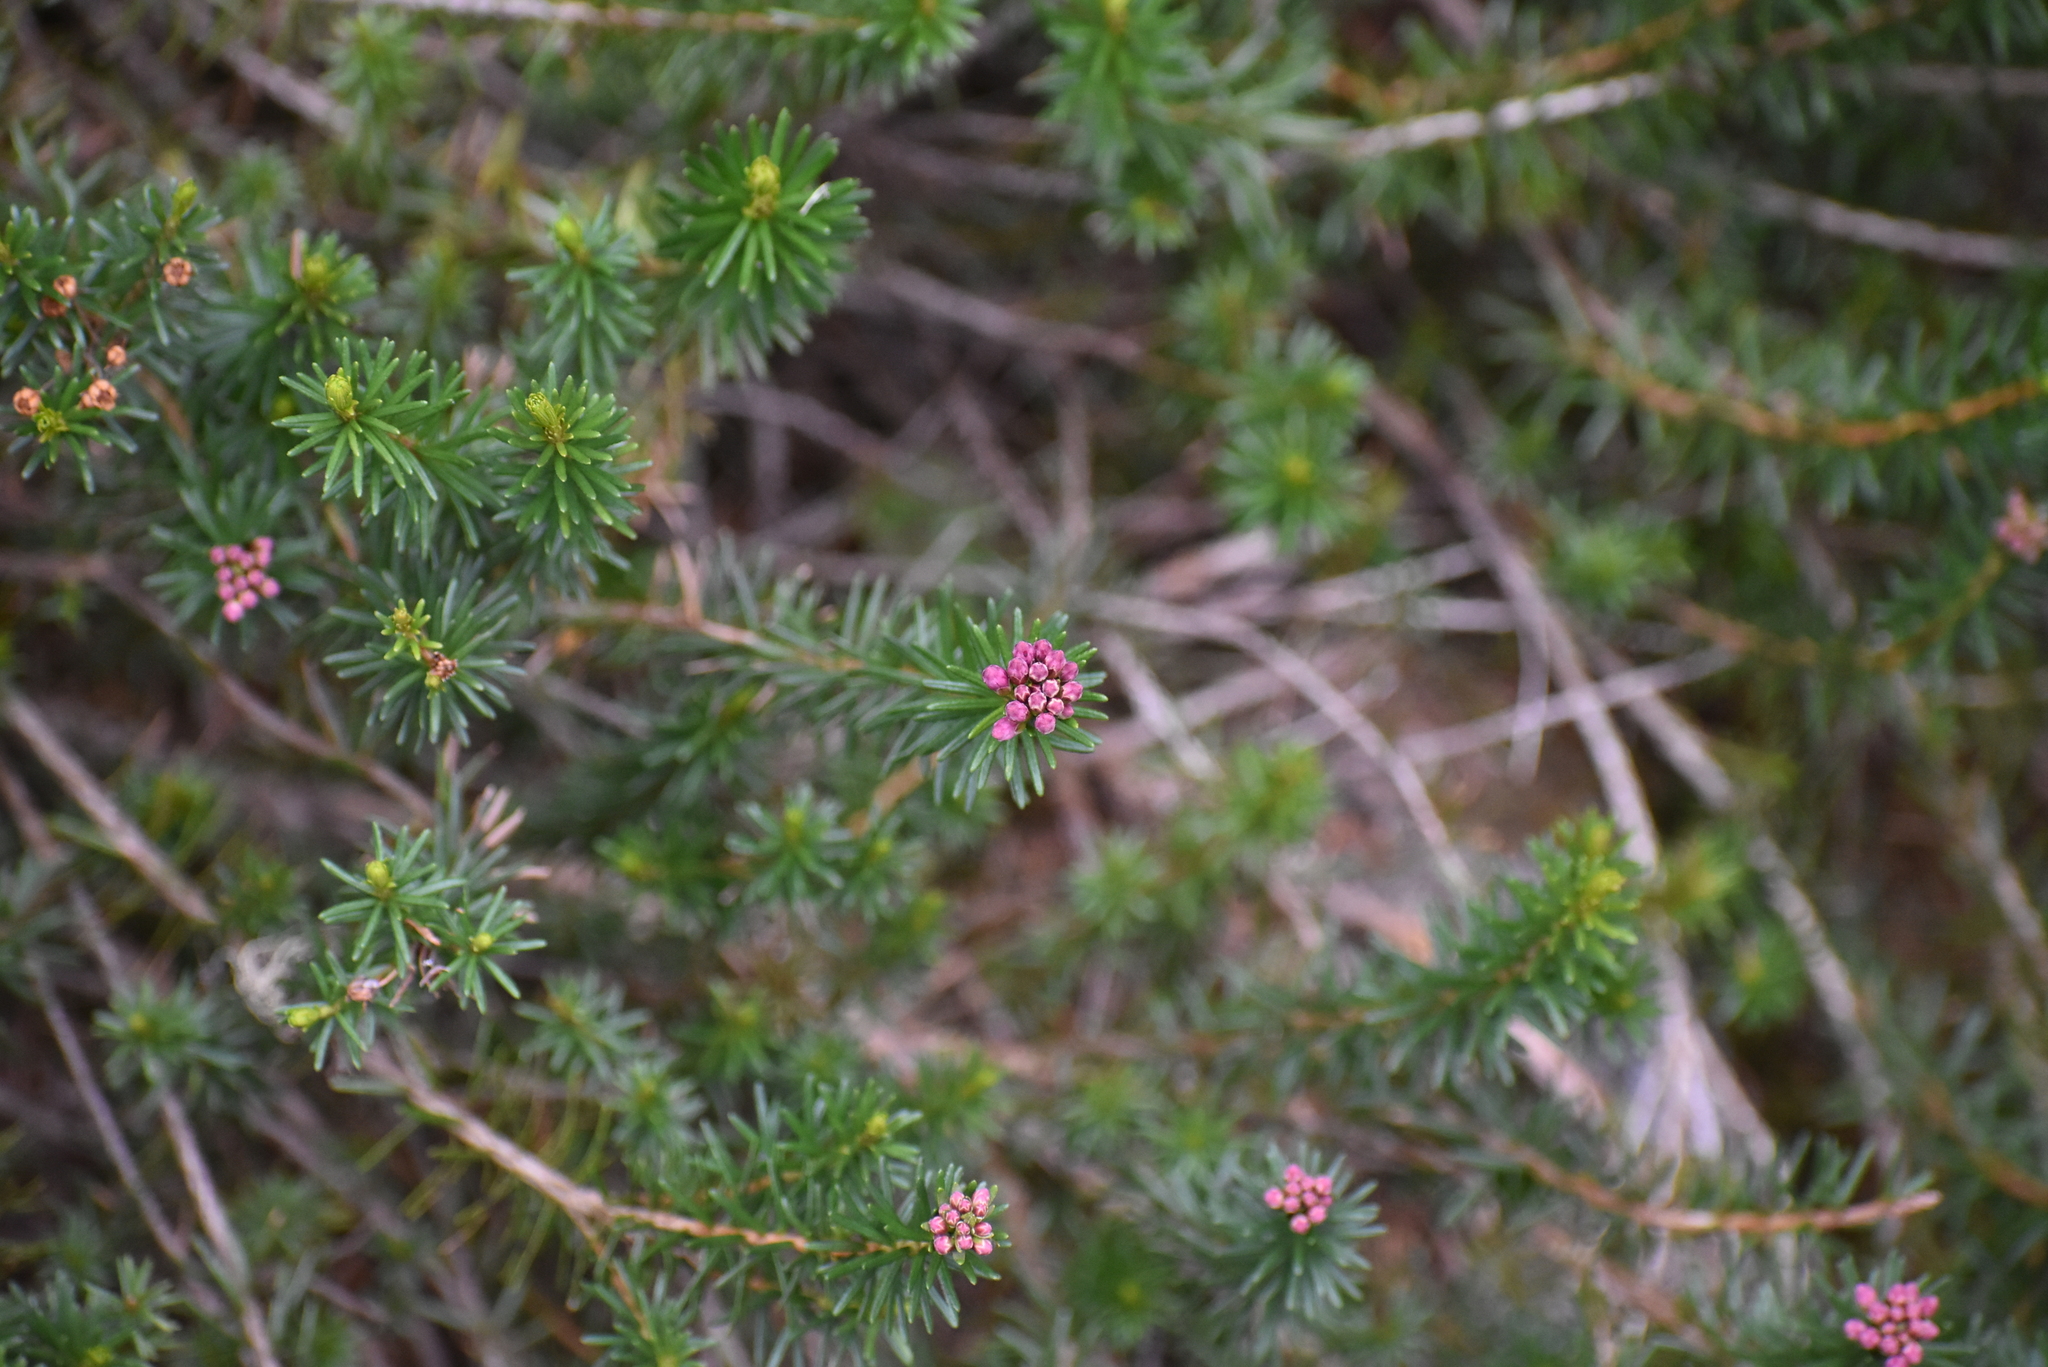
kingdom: Plantae
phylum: Tracheophyta
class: Magnoliopsida
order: Ericales
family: Ericaceae
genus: Phyllodoce
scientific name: Phyllodoce empetriformis
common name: Pink mountain heather
